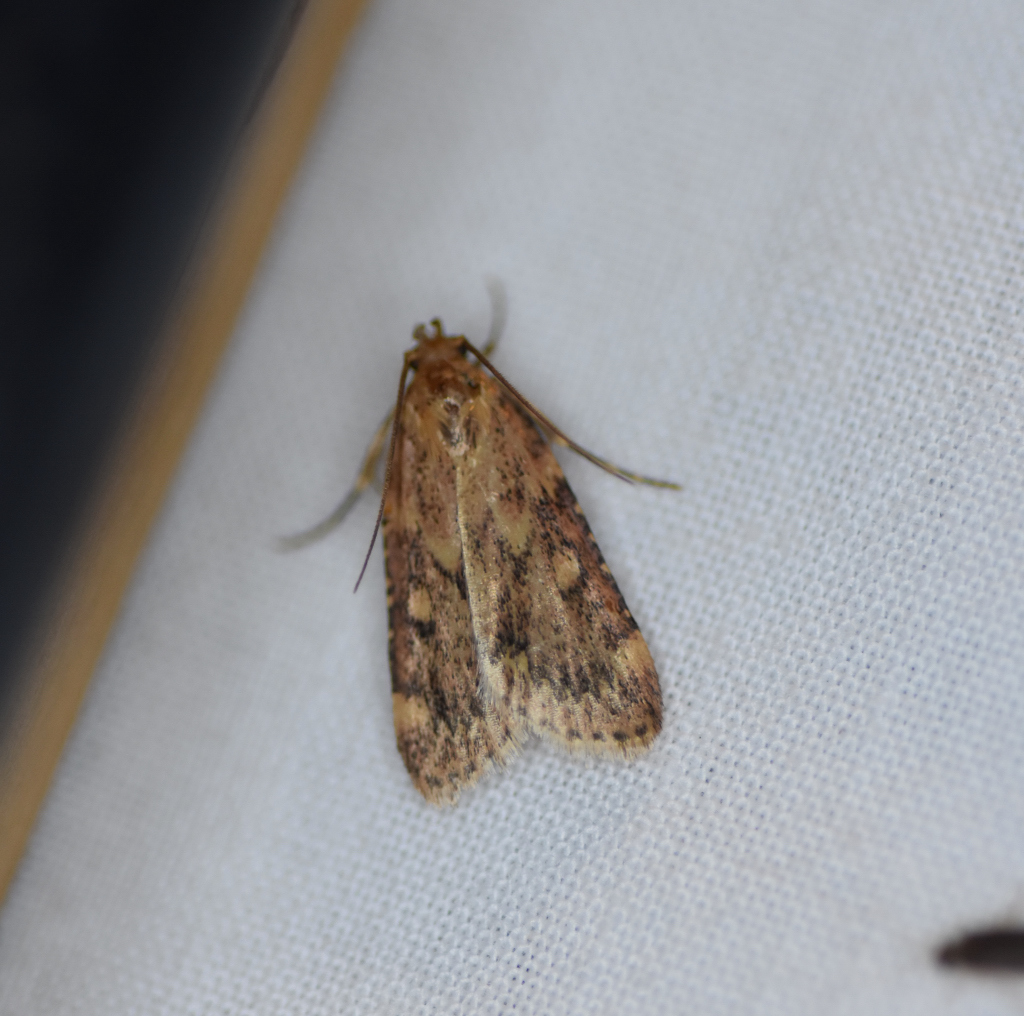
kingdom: Animalia
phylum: Arthropoda
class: Insecta
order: Lepidoptera
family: Pyralidae
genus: Aglossa
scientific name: Aglossa cuprina
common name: Grease moth
